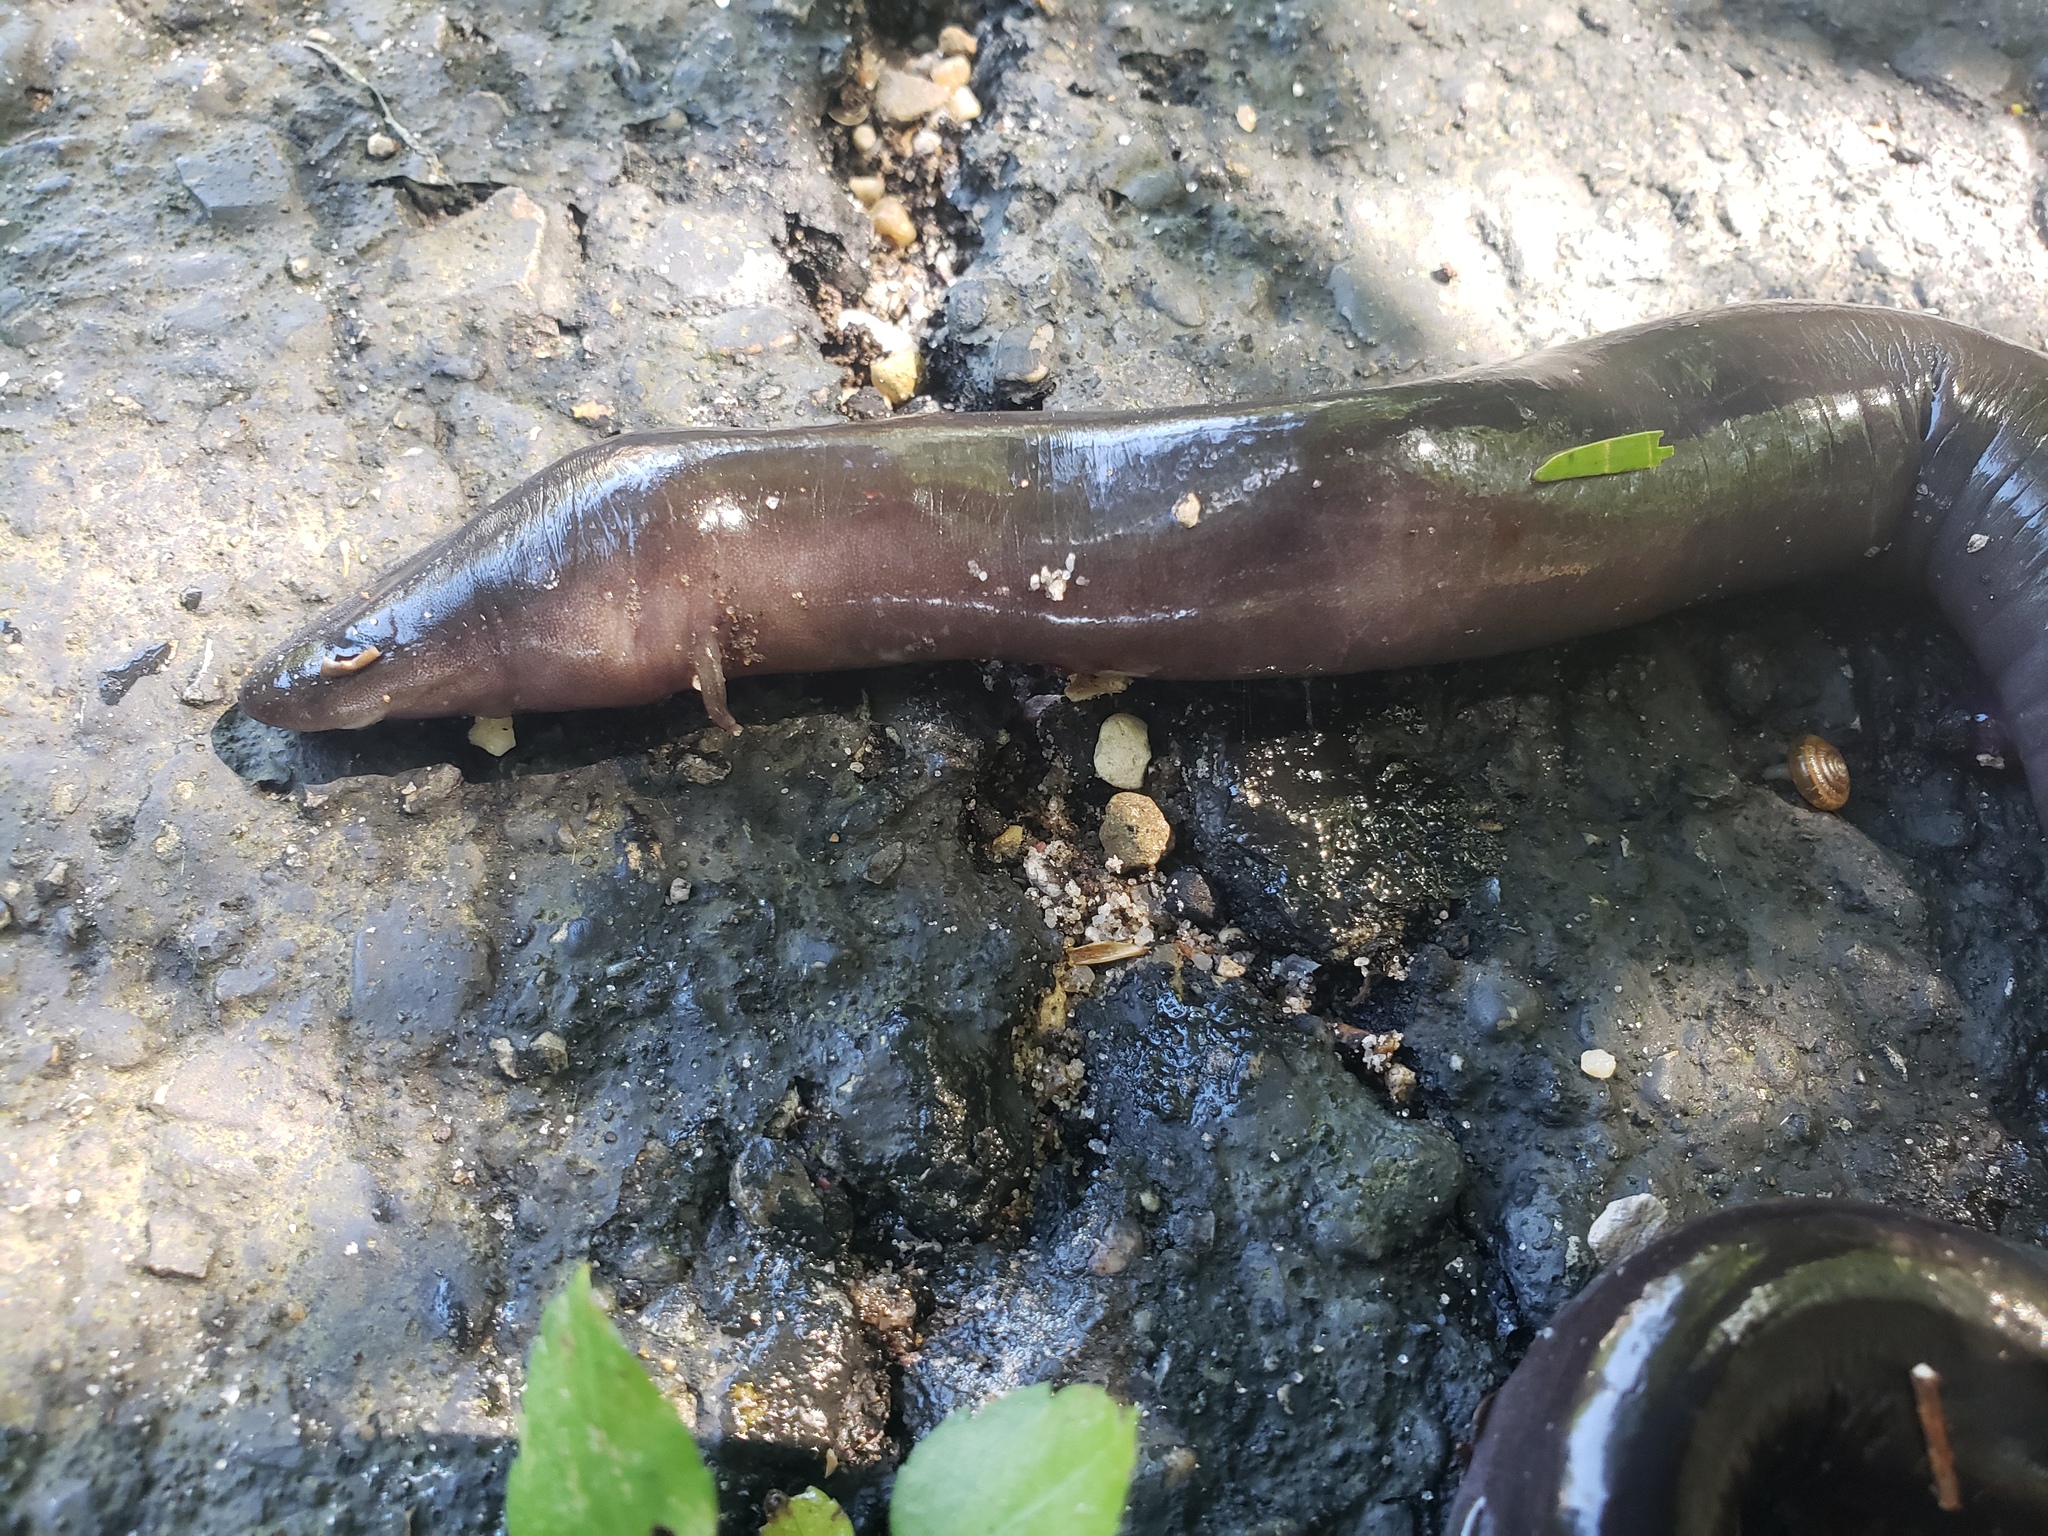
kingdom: Animalia
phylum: Chordata
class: Amphibia
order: Caudata
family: Amphiumidae
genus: Amphiuma
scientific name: Amphiuma tridactylum
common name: Three-toed amphiuma
